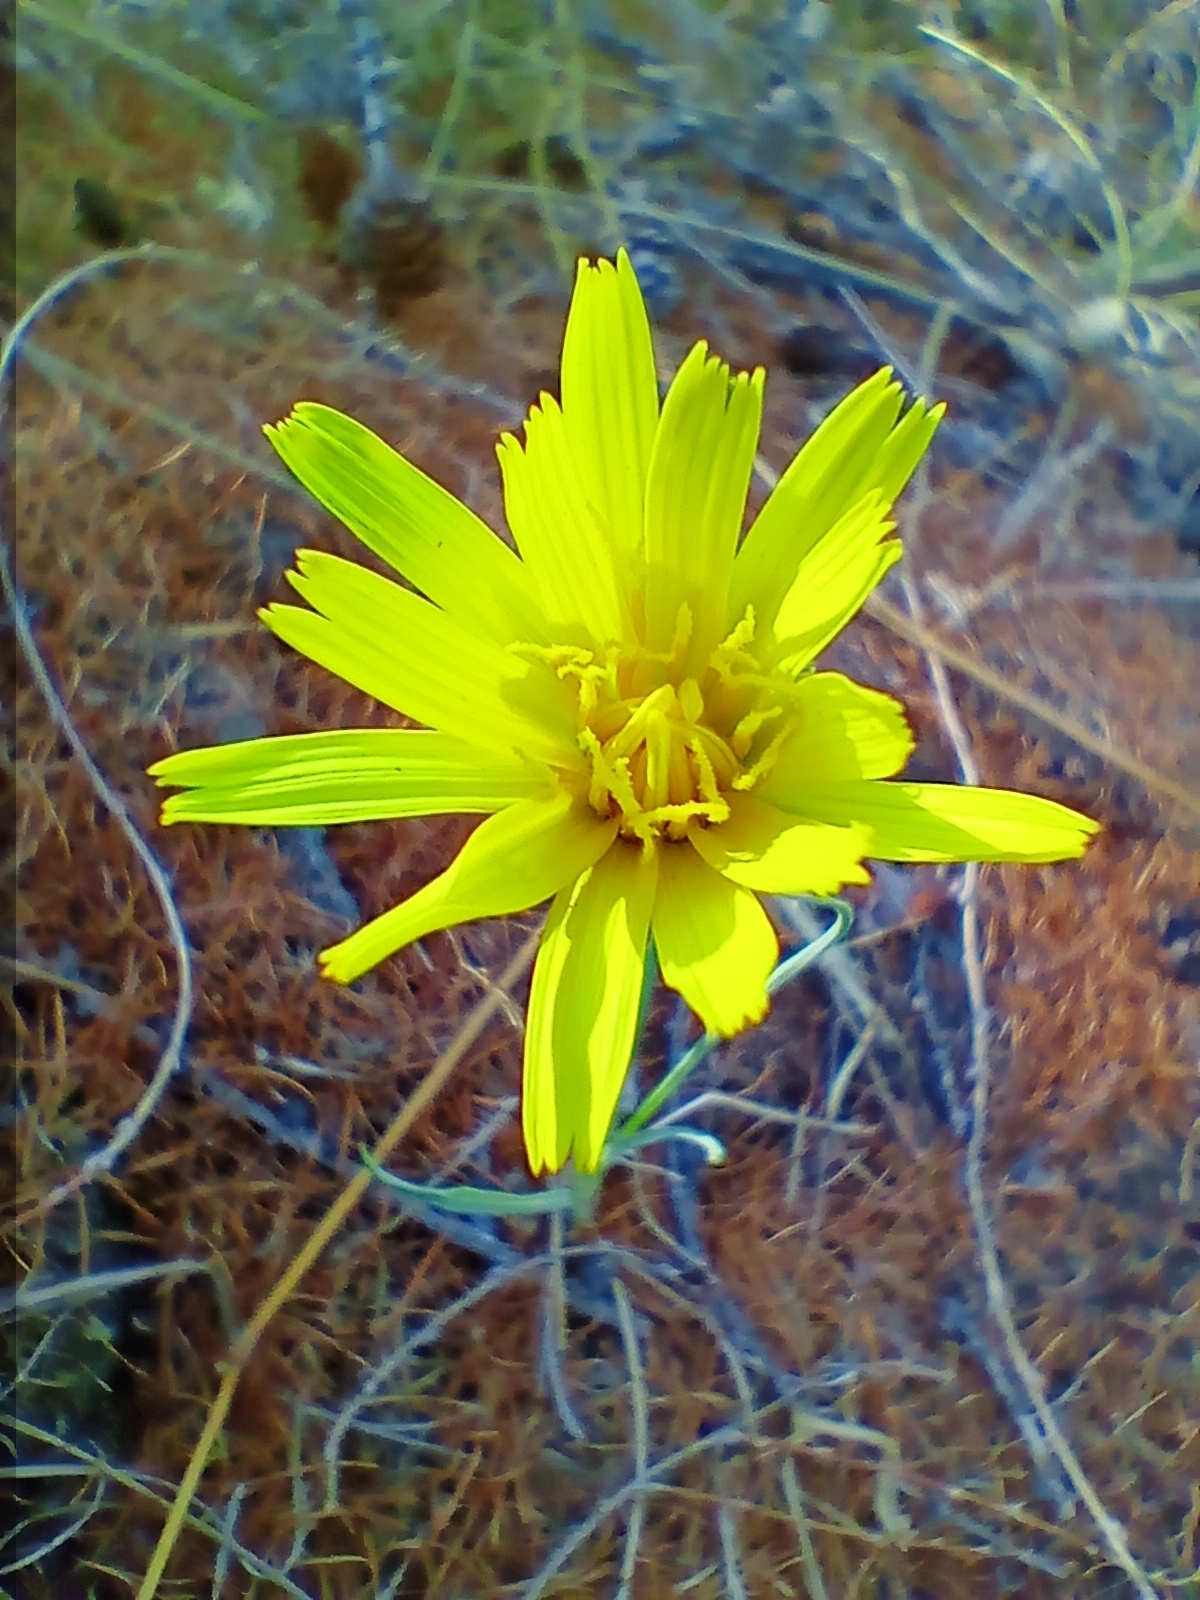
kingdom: Plantae
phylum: Tracheophyta
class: Magnoliopsida
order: Asterales
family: Asteraceae
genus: Takhtajaniantha
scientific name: Takhtajaniantha austriaca
